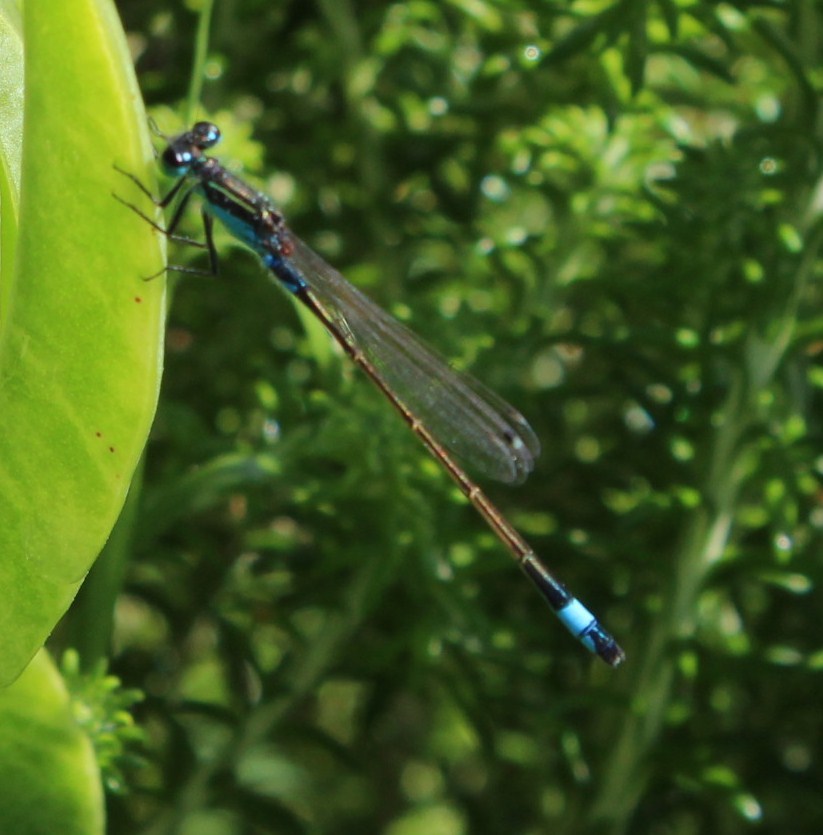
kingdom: Animalia
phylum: Arthropoda
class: Insecta
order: Odonata
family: Coenagrionidae
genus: Ischnura
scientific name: Ischnura senegalensis
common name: Tropical bluetail
